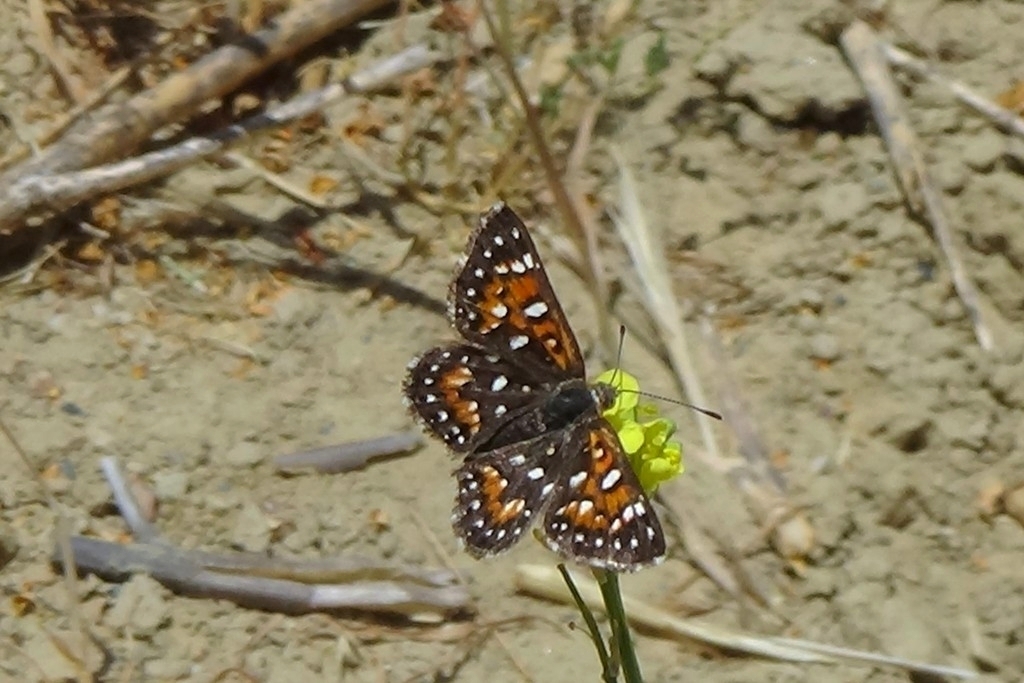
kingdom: Animalia
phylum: Arthropoda
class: Insecta
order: Lepidoptera
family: Riodinidae
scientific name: Riodinidae
